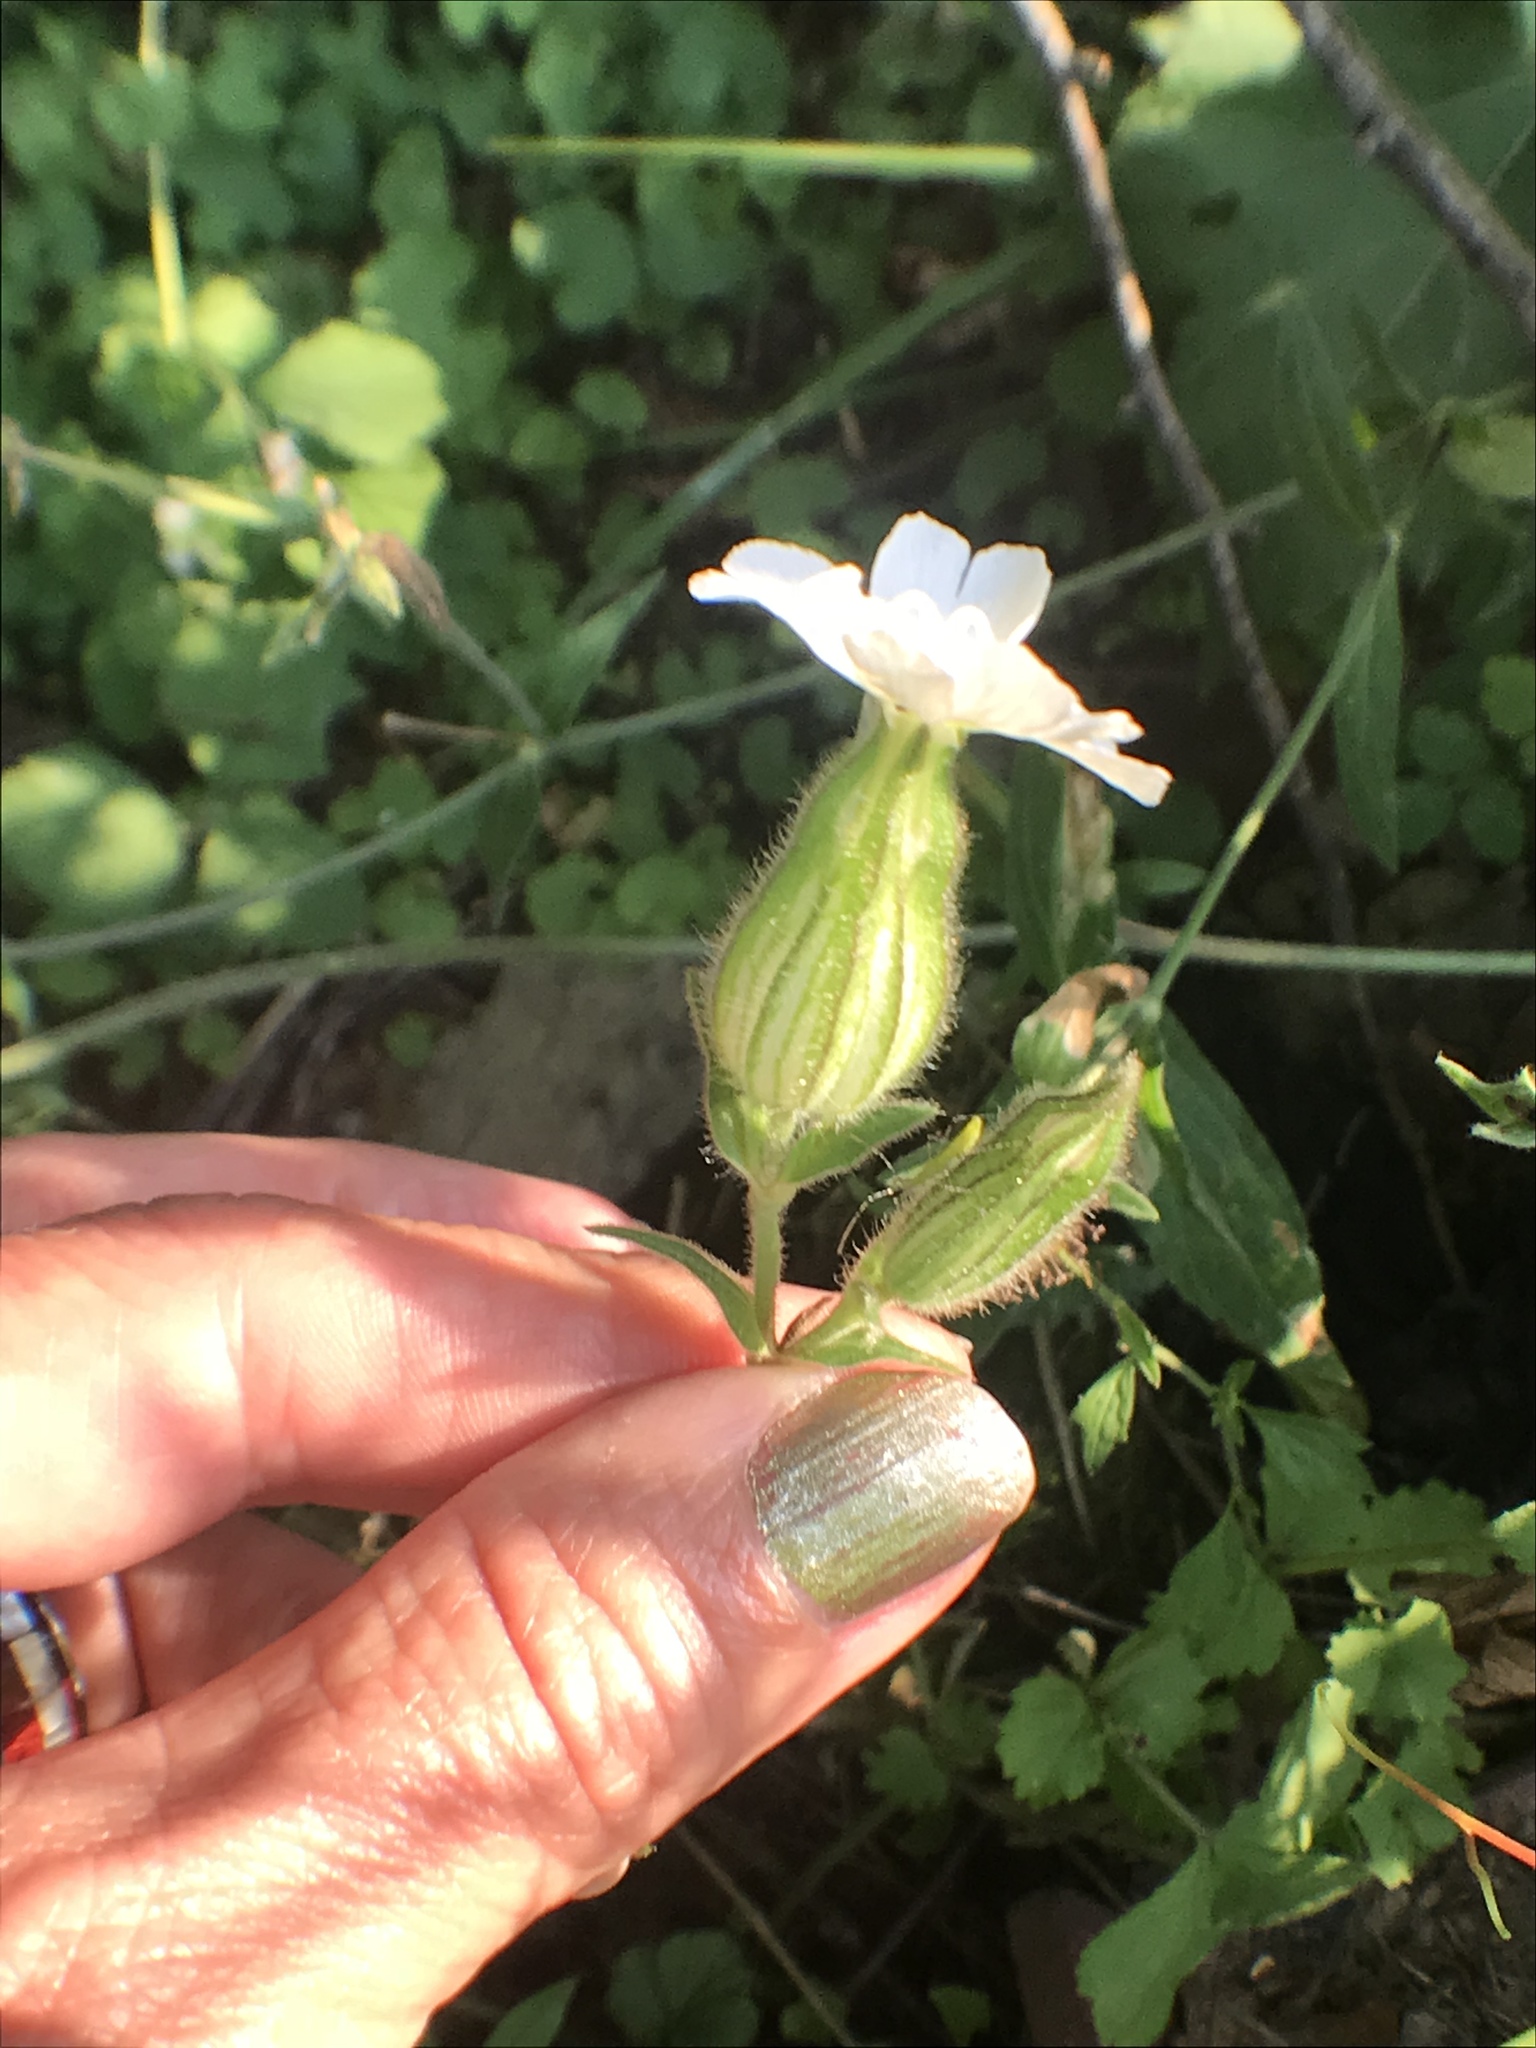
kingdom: Plantae
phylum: Tracheophyta
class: Magnoliopsida
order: Caryophyllales
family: Caryophyllaceae
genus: Silene
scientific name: Silene latifolia
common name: White campion
